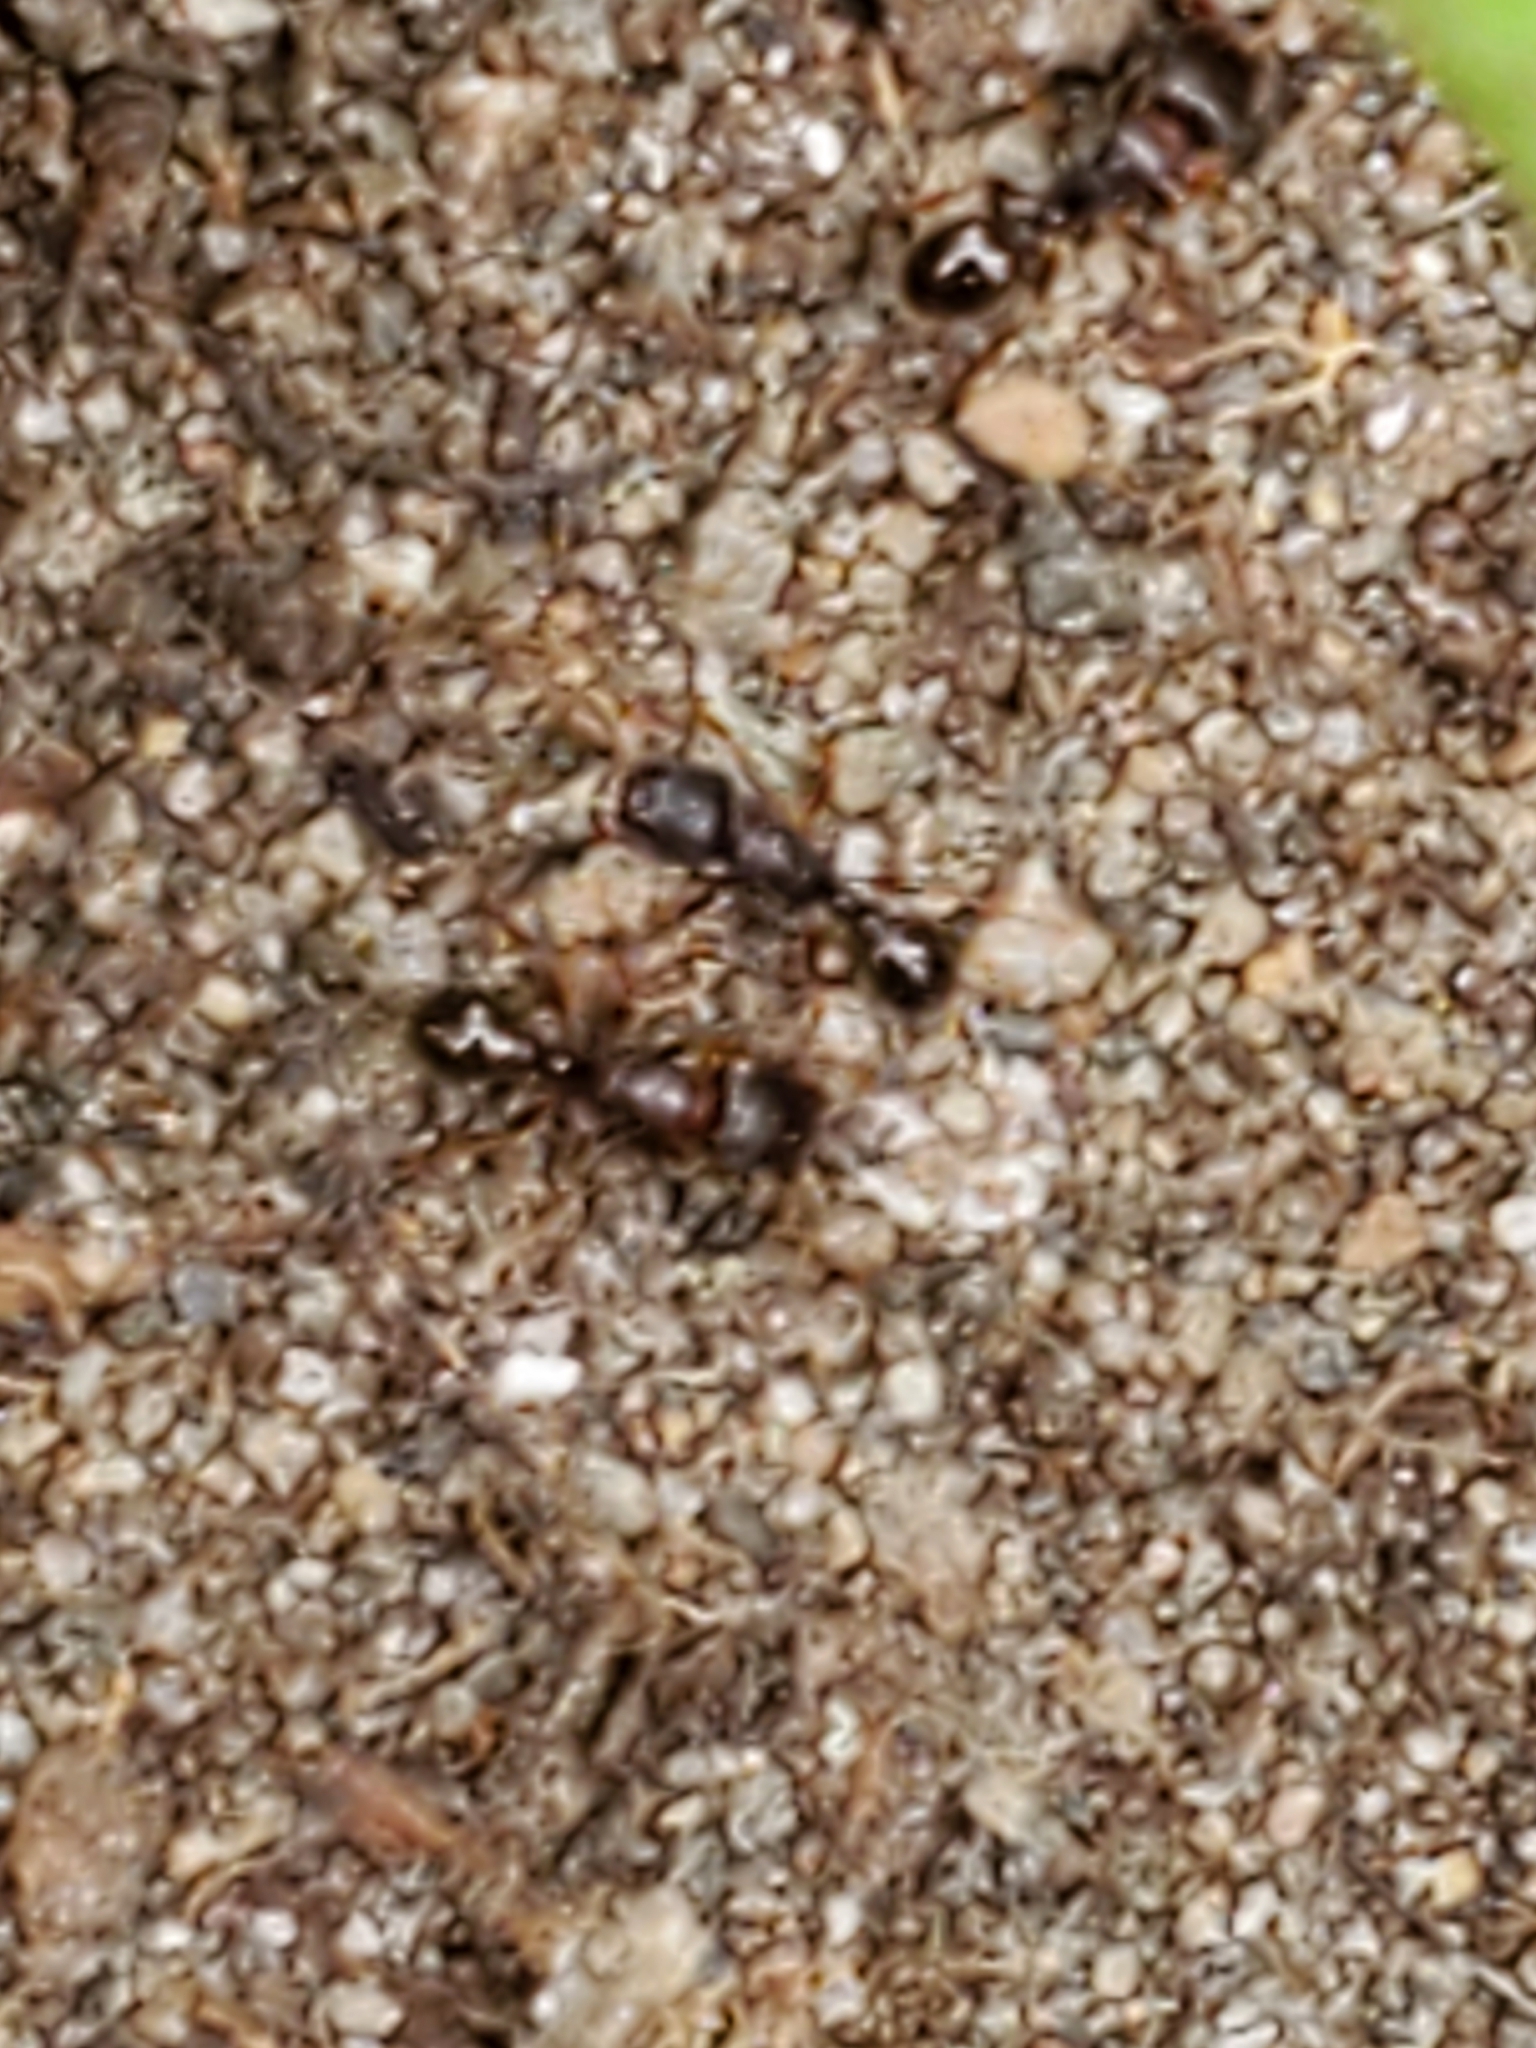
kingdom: Animalia
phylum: Arthropoda
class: Insecta
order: Hymenoptera
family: Formicidae
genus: Tetramorium
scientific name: Tetramorium immigrans
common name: Pavement ant
